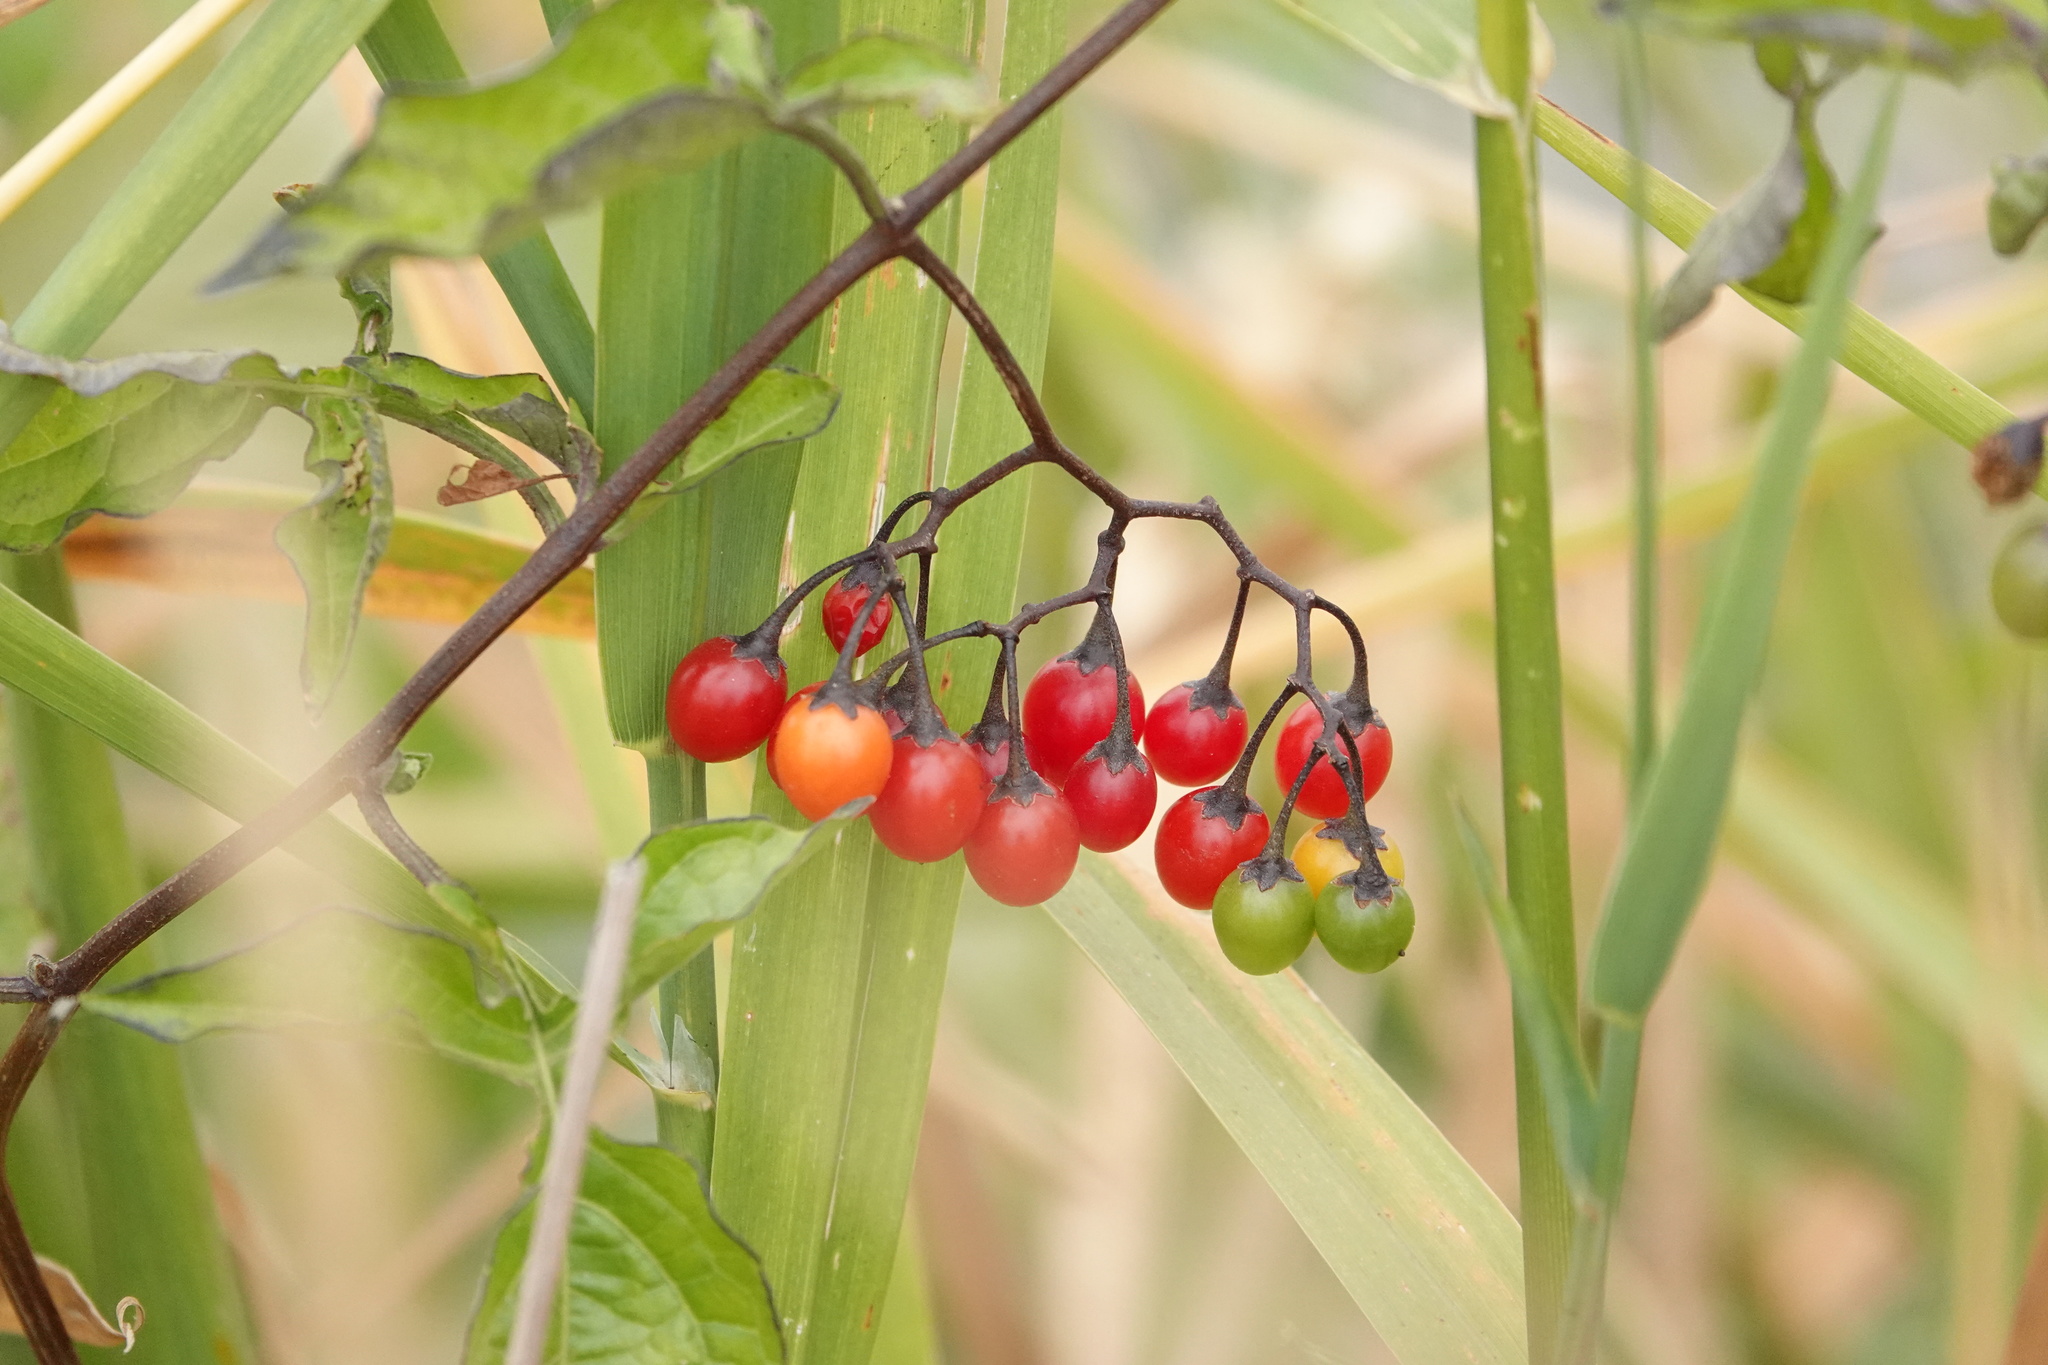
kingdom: Plantae
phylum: Tracheophyta
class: Magnoliopsida
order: Solanales
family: Solanaceae
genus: Solanum
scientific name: Solanum dulcamara
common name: Climbing nightshade
